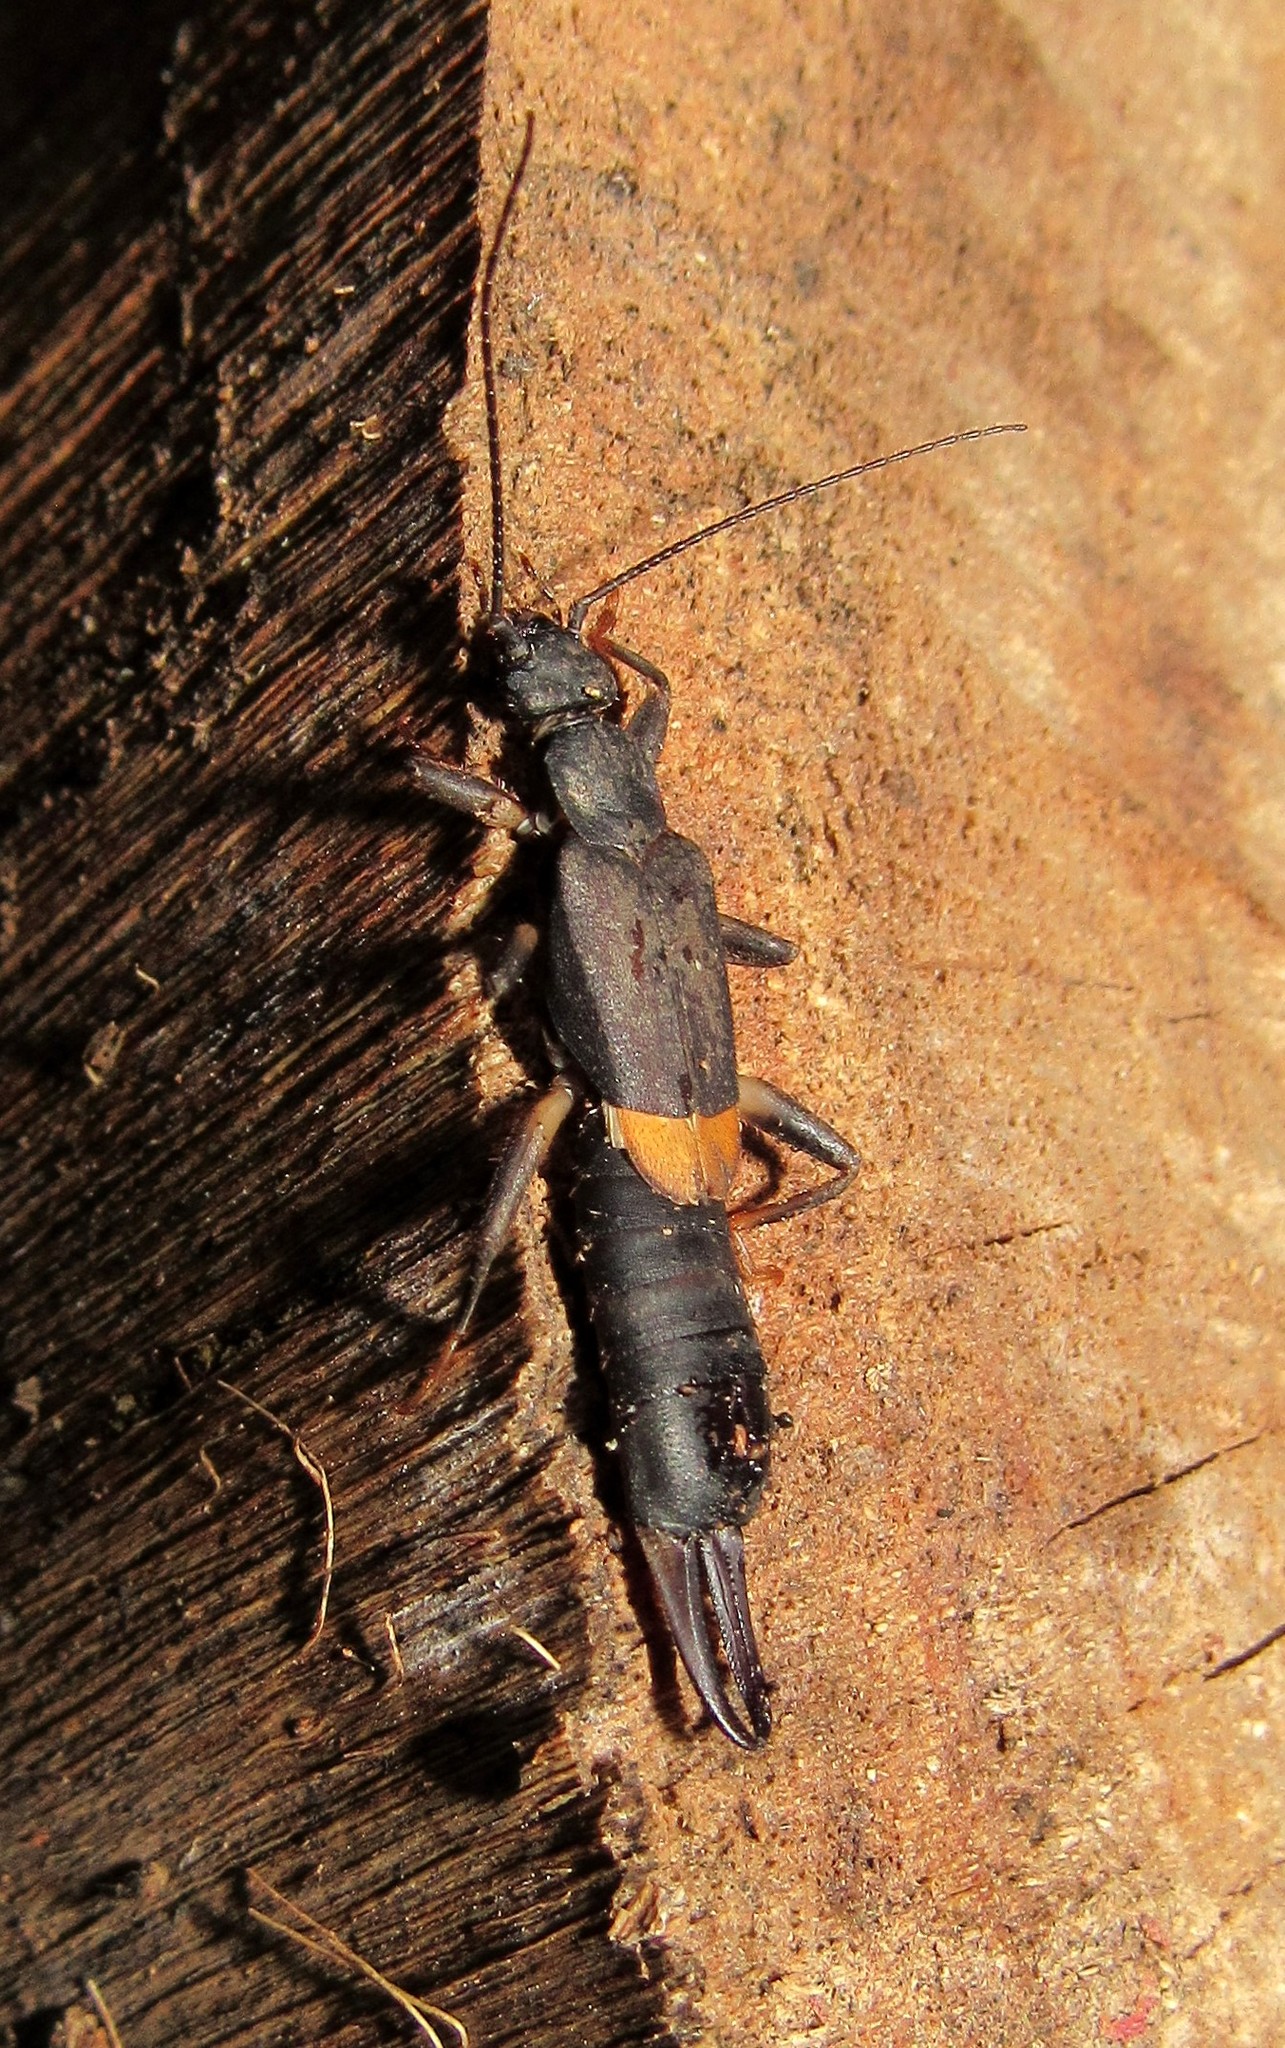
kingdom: Animalia
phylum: Arthropoda
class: Insecta
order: Dermaptera
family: Pygidicranidae
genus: Pyragra
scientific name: Pyragra paraguayensis
